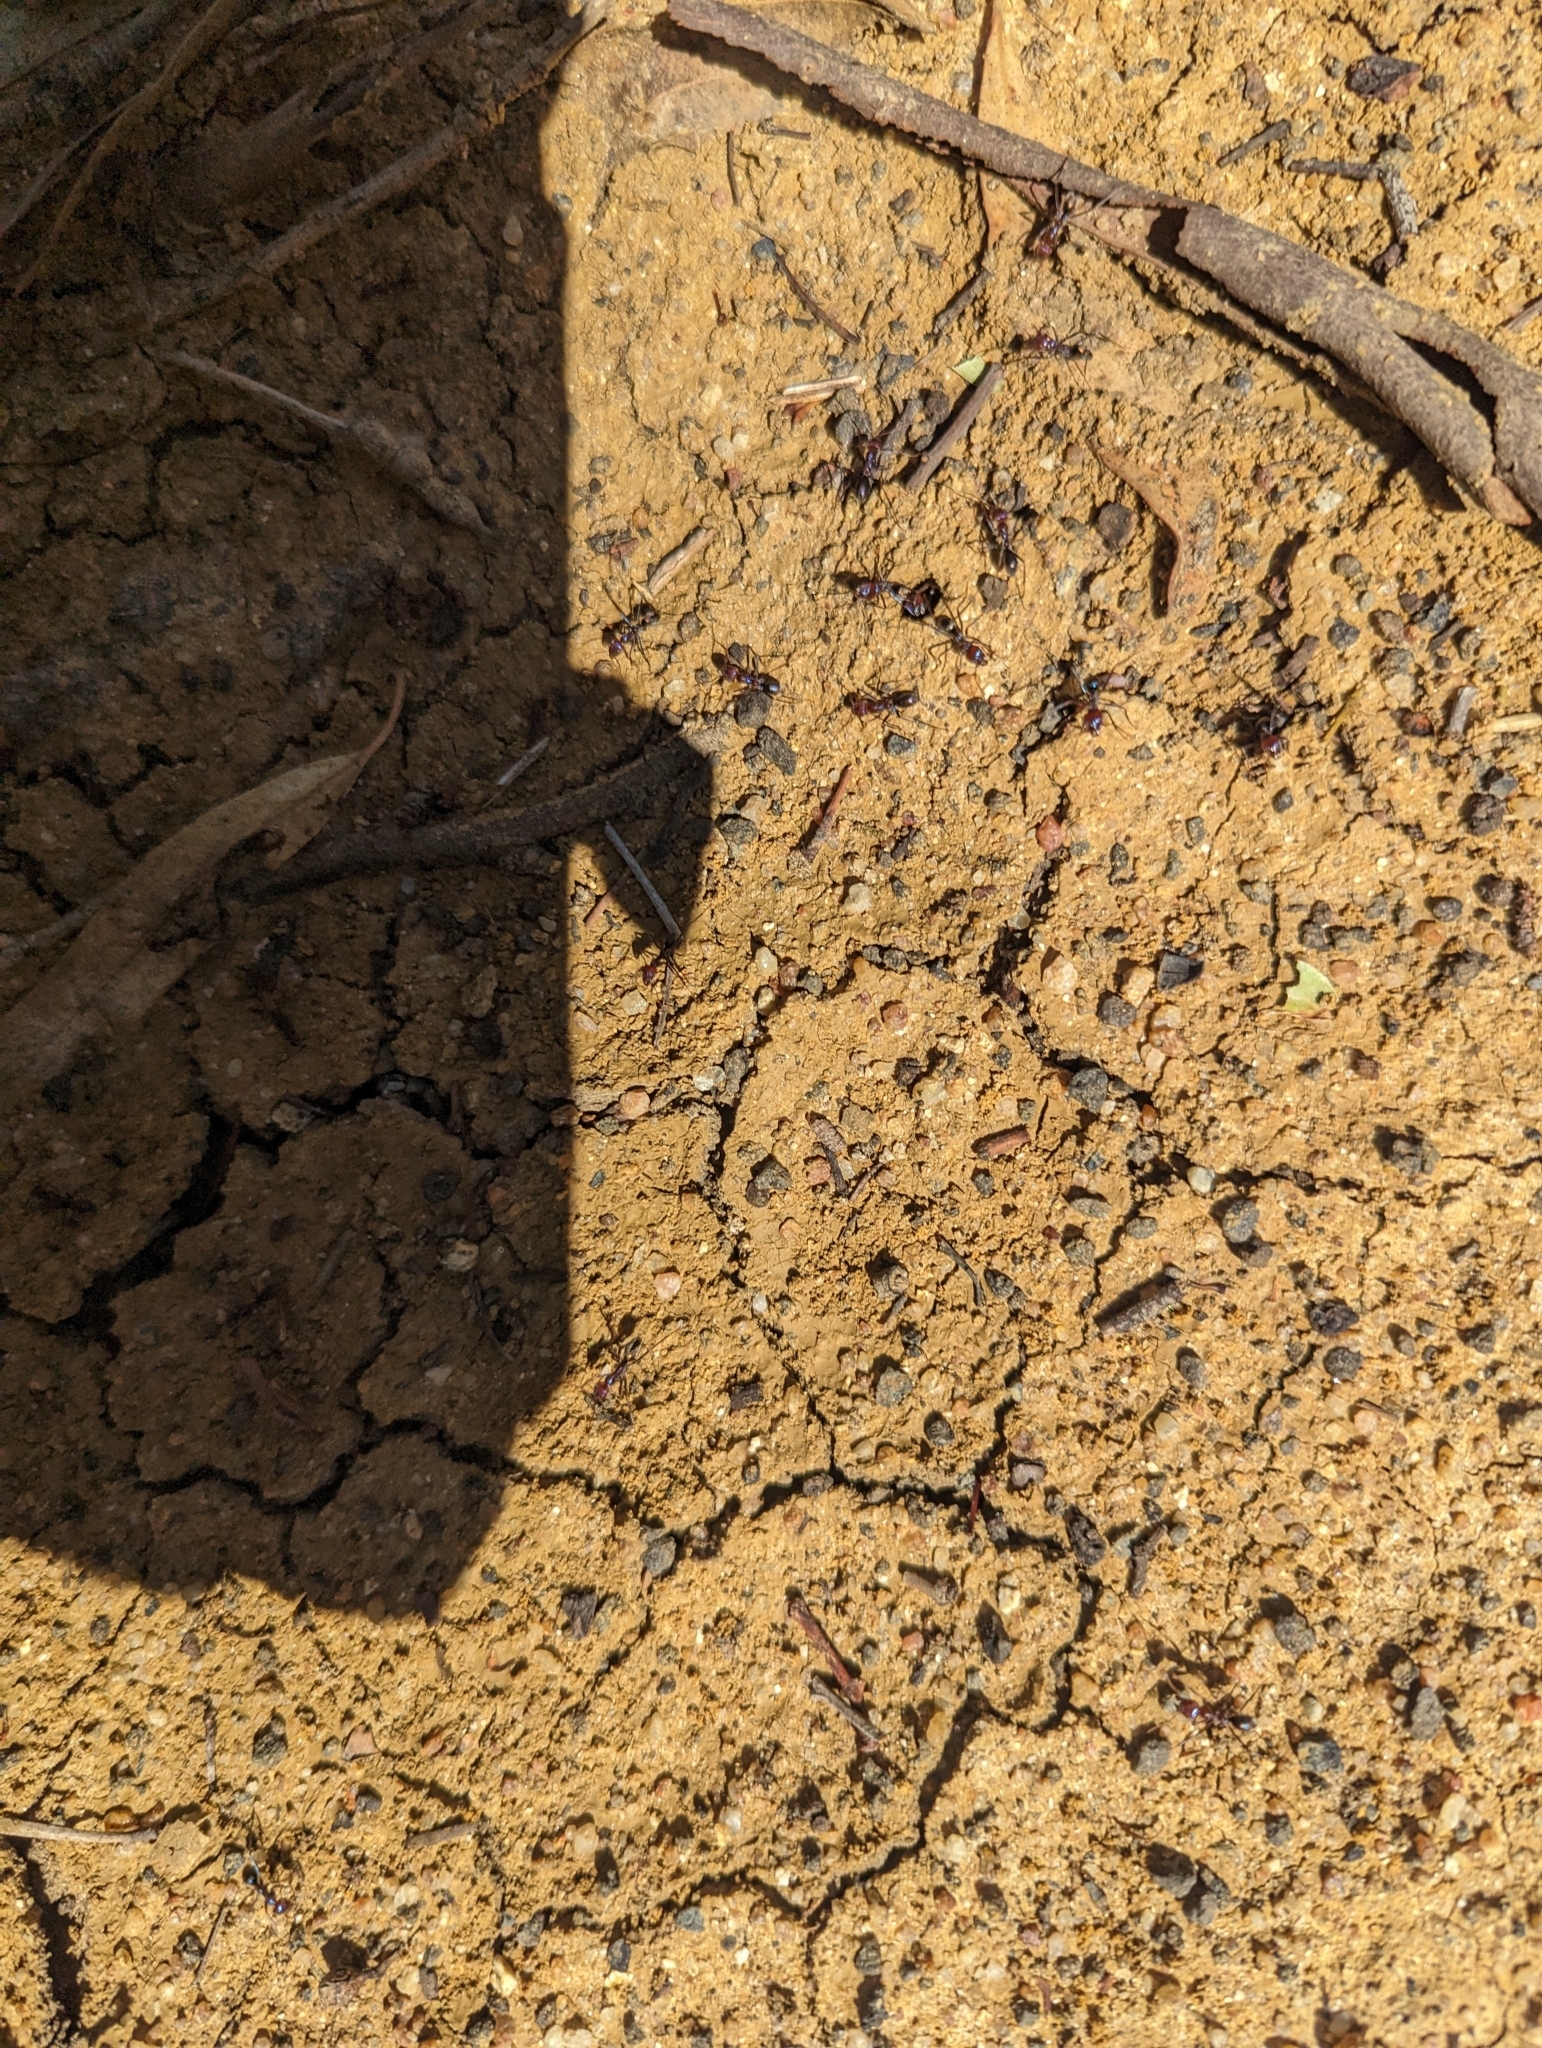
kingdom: Animalia
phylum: Arthropoda
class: Insecta
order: Hymenoptera
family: Formicidae
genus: Iridomyrmex
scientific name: Iridomyrmex purpureus
